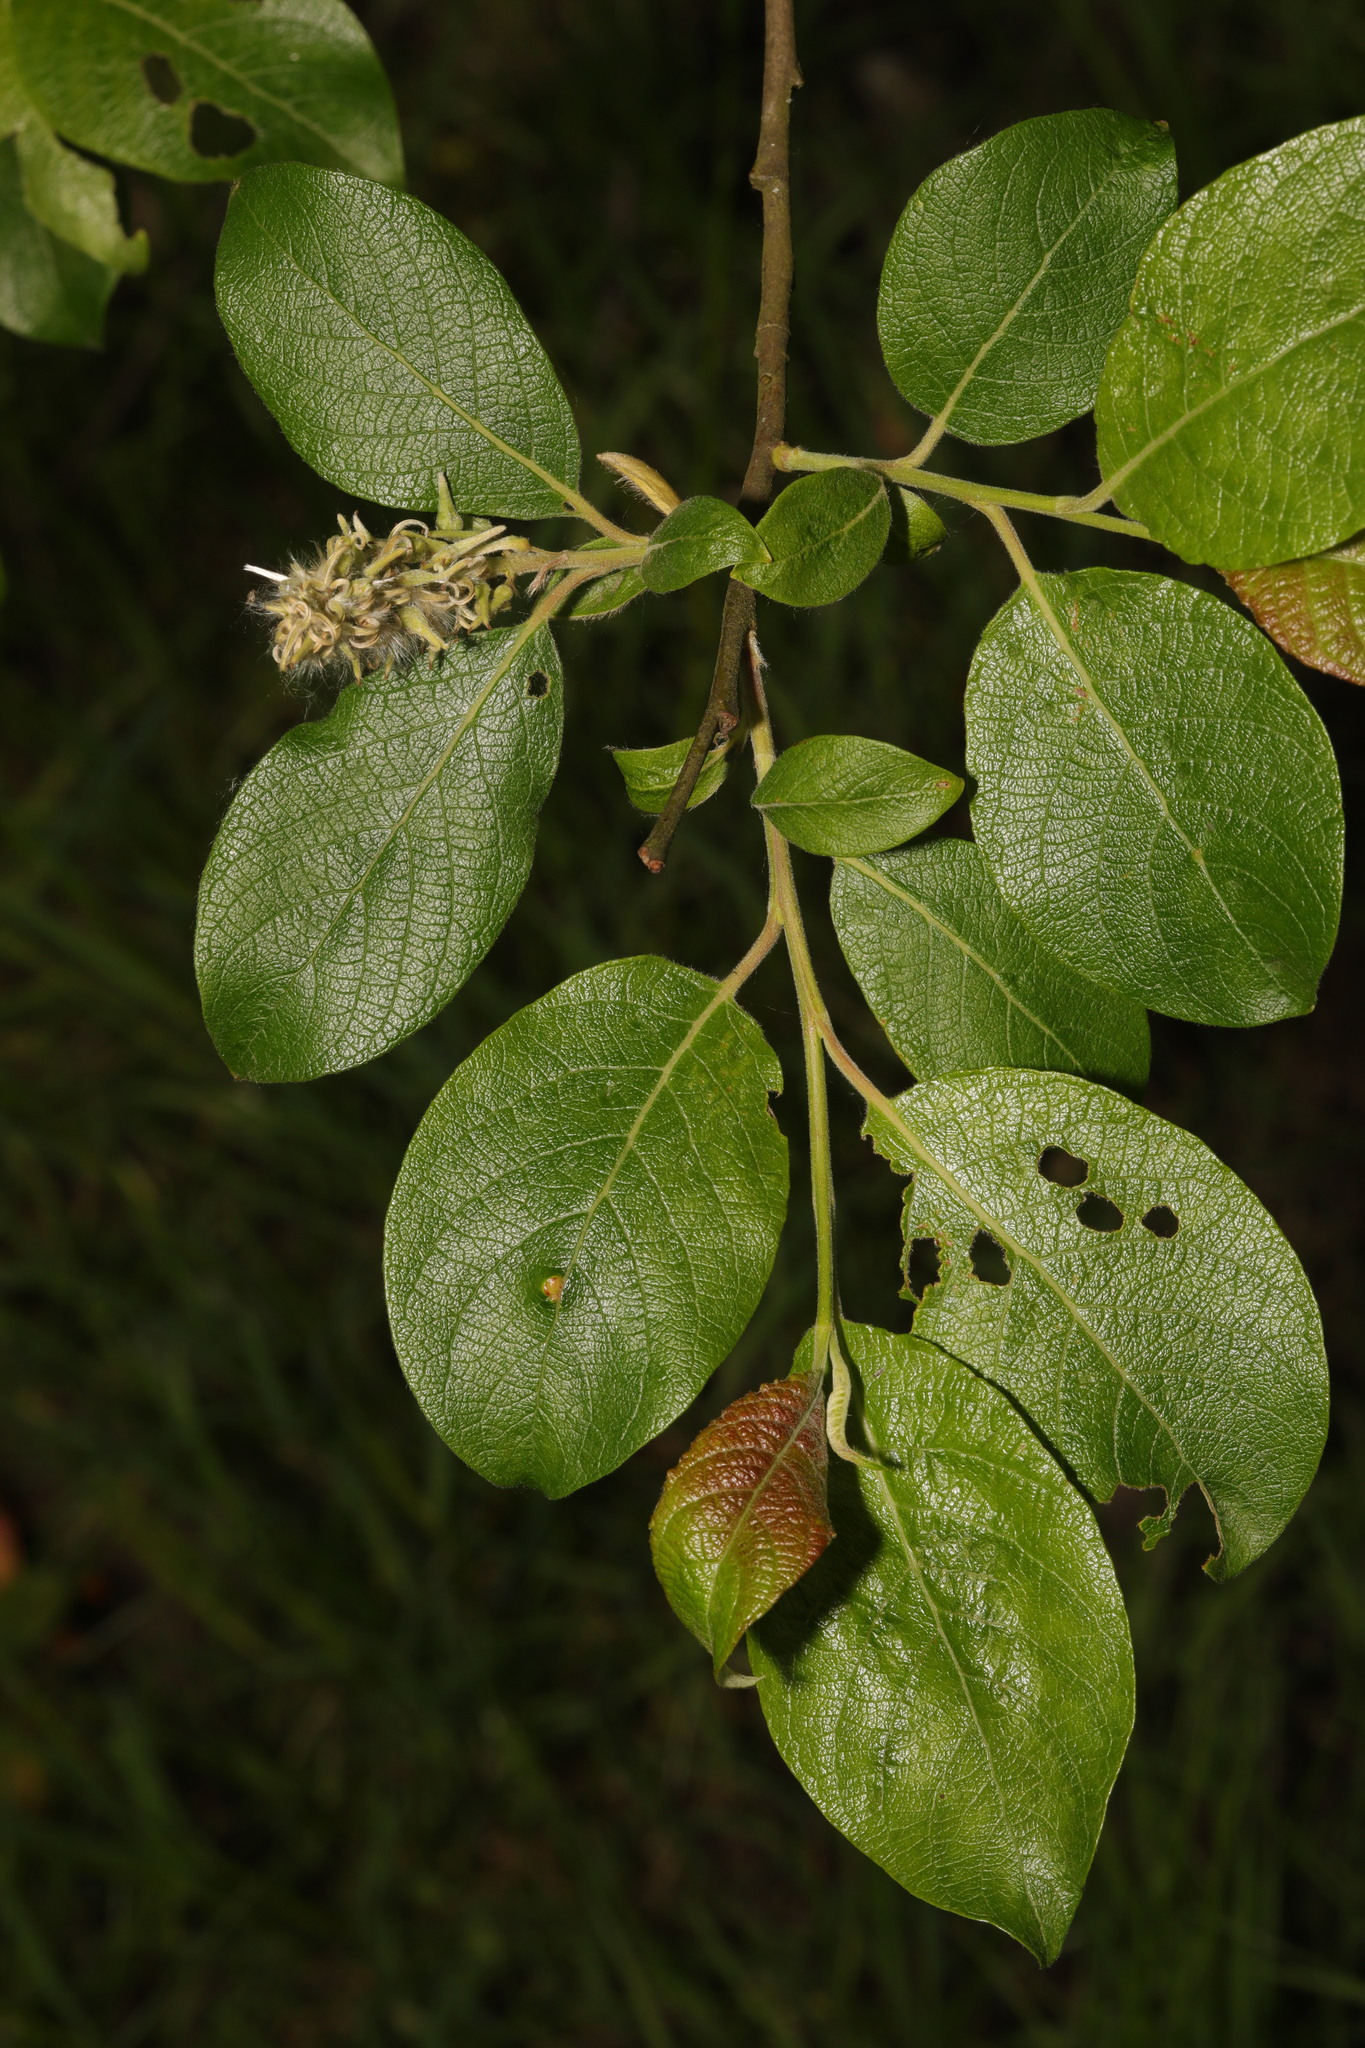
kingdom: Plantae
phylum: Tracheophyta
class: Magnoliopsida
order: Malpighiales
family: Salicaceae
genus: Salix
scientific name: Salix caprea
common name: Goat willow
